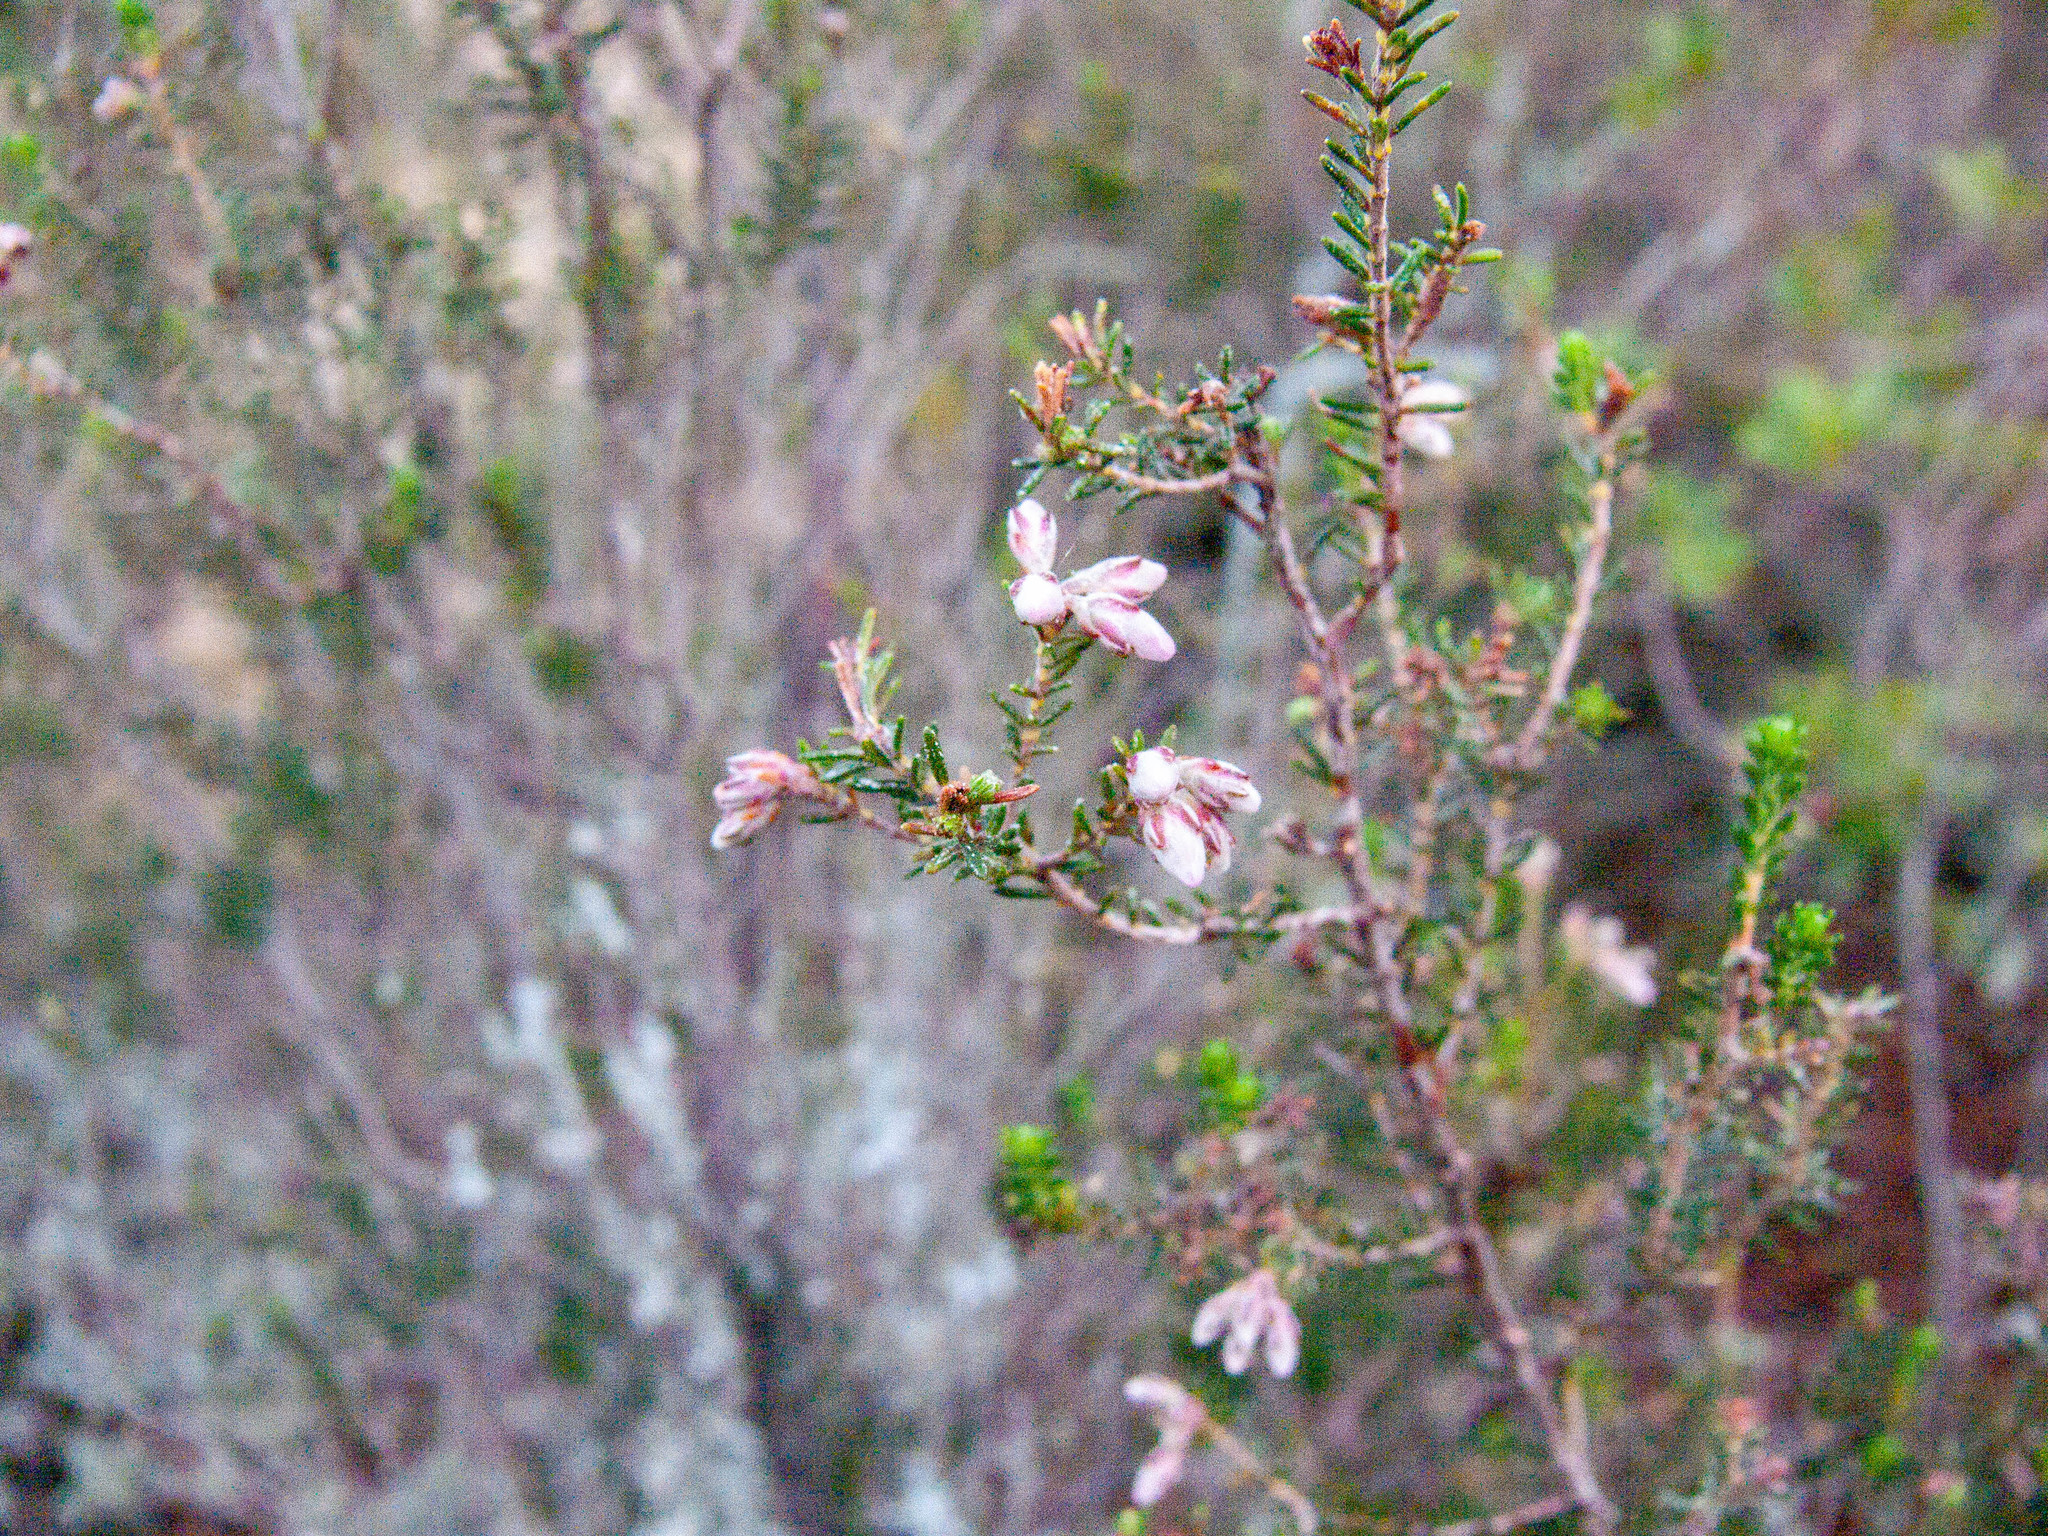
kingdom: Plantae
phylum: Tracheophyta
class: Magnoliopsida
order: Ericales
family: Ericaceae
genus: Erica
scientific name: Erica australis
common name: Spanish heath
